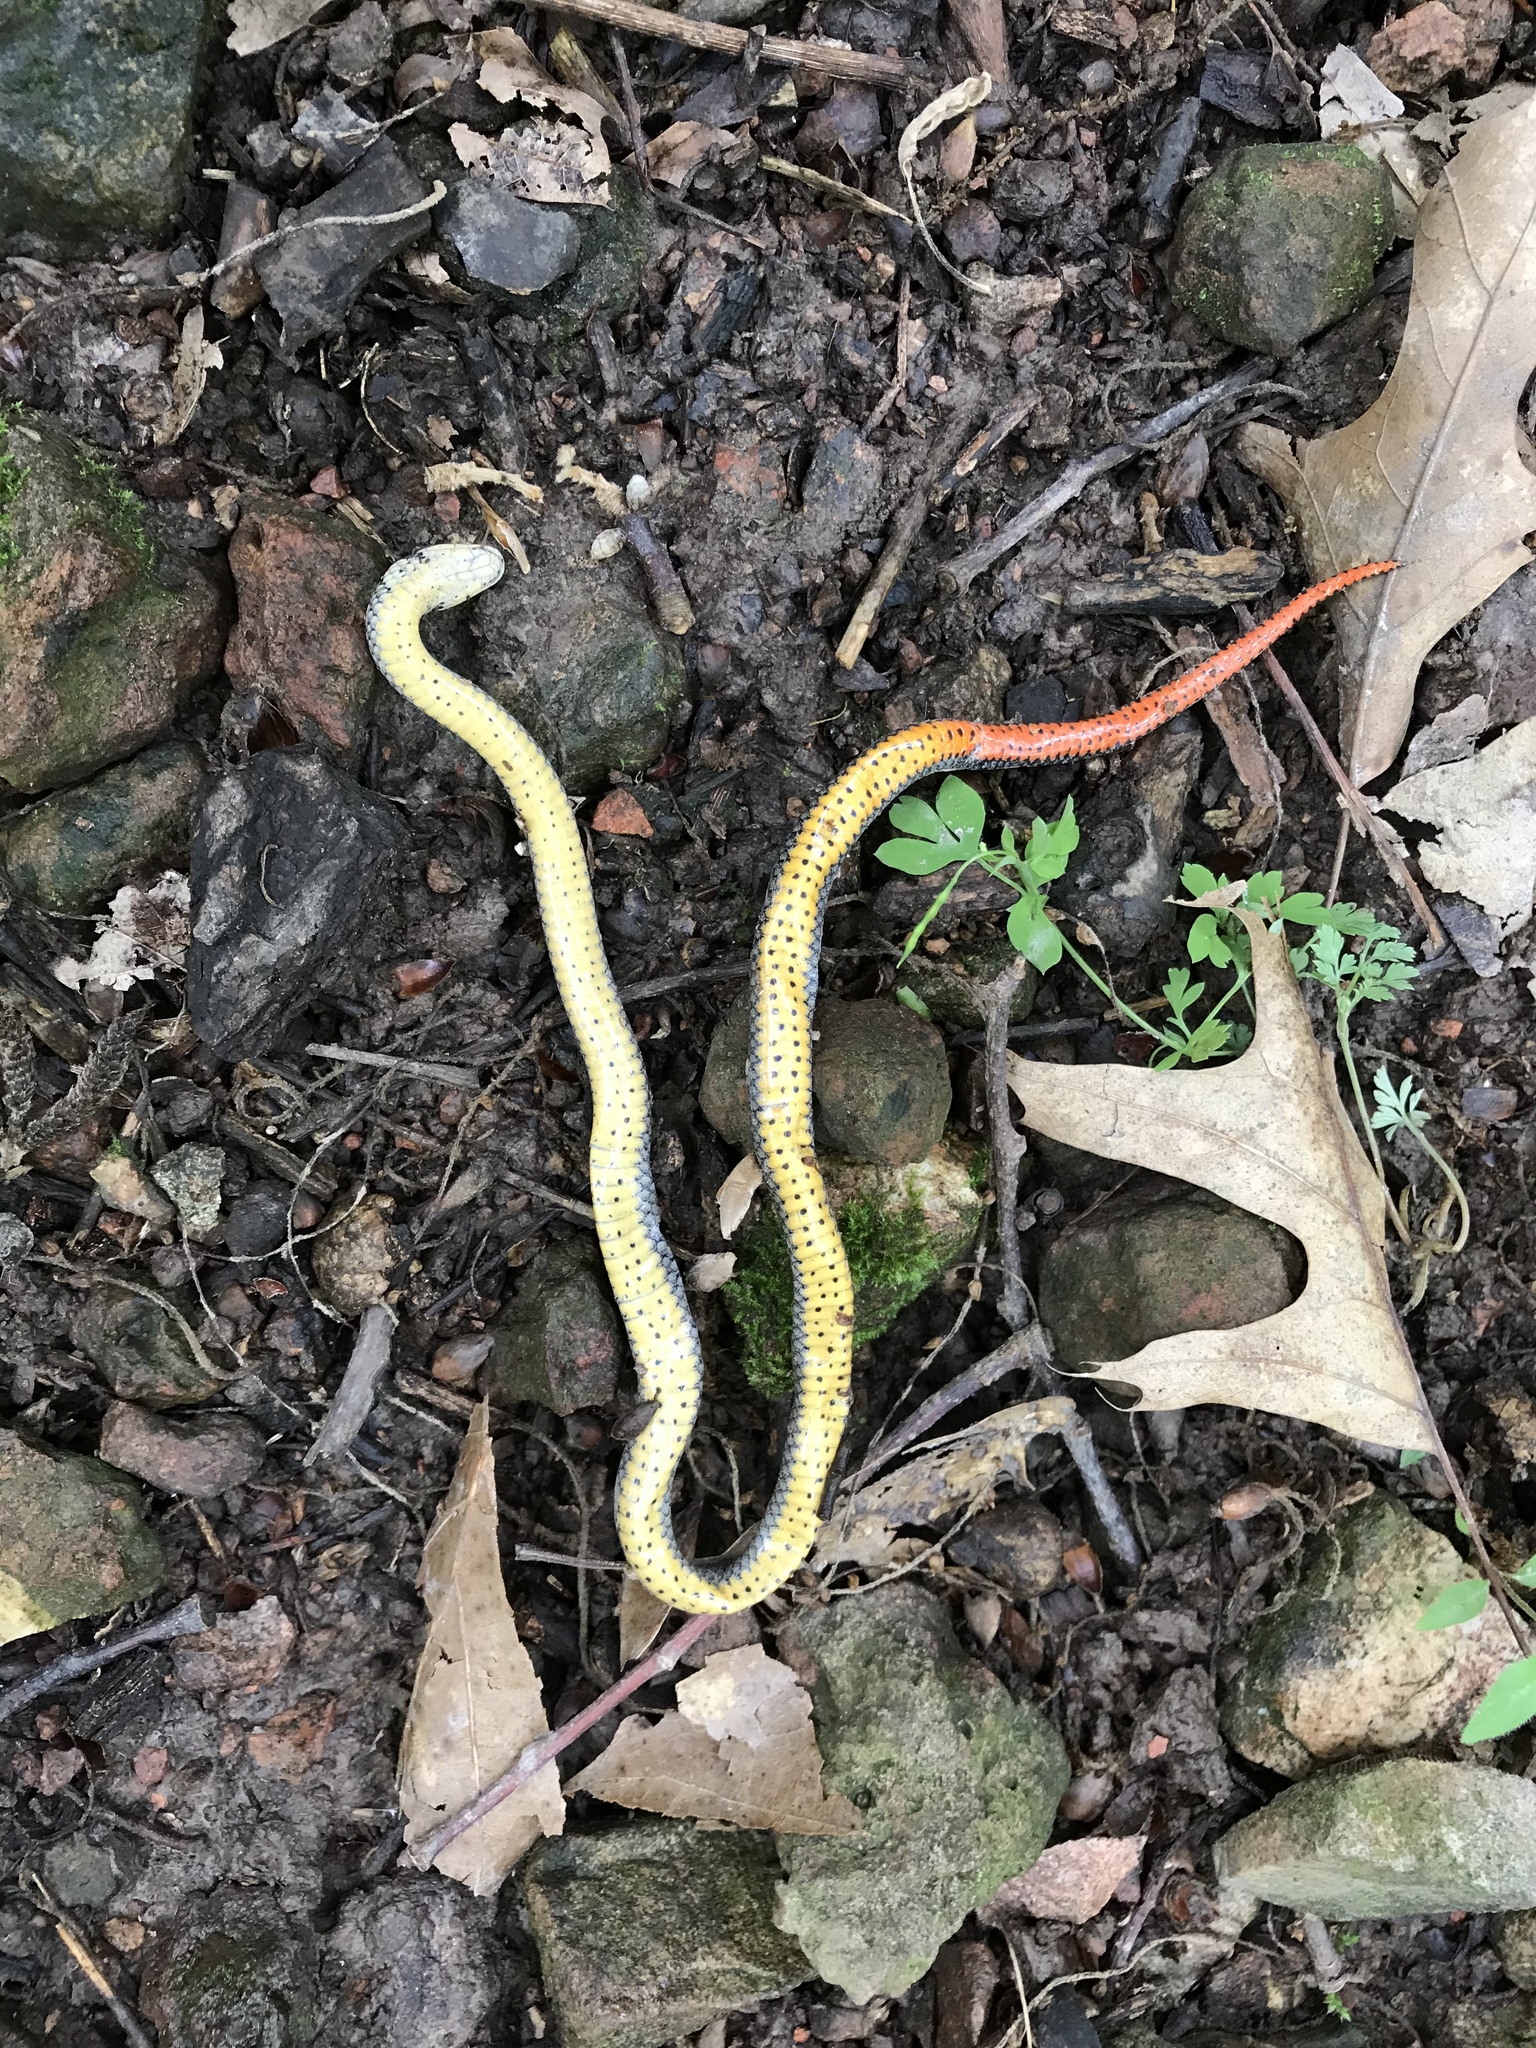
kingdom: Animalia
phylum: Chordata
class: Squamata
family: Colubridae
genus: Diadophis
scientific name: Diadophis punctatus
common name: Ringneck snake
